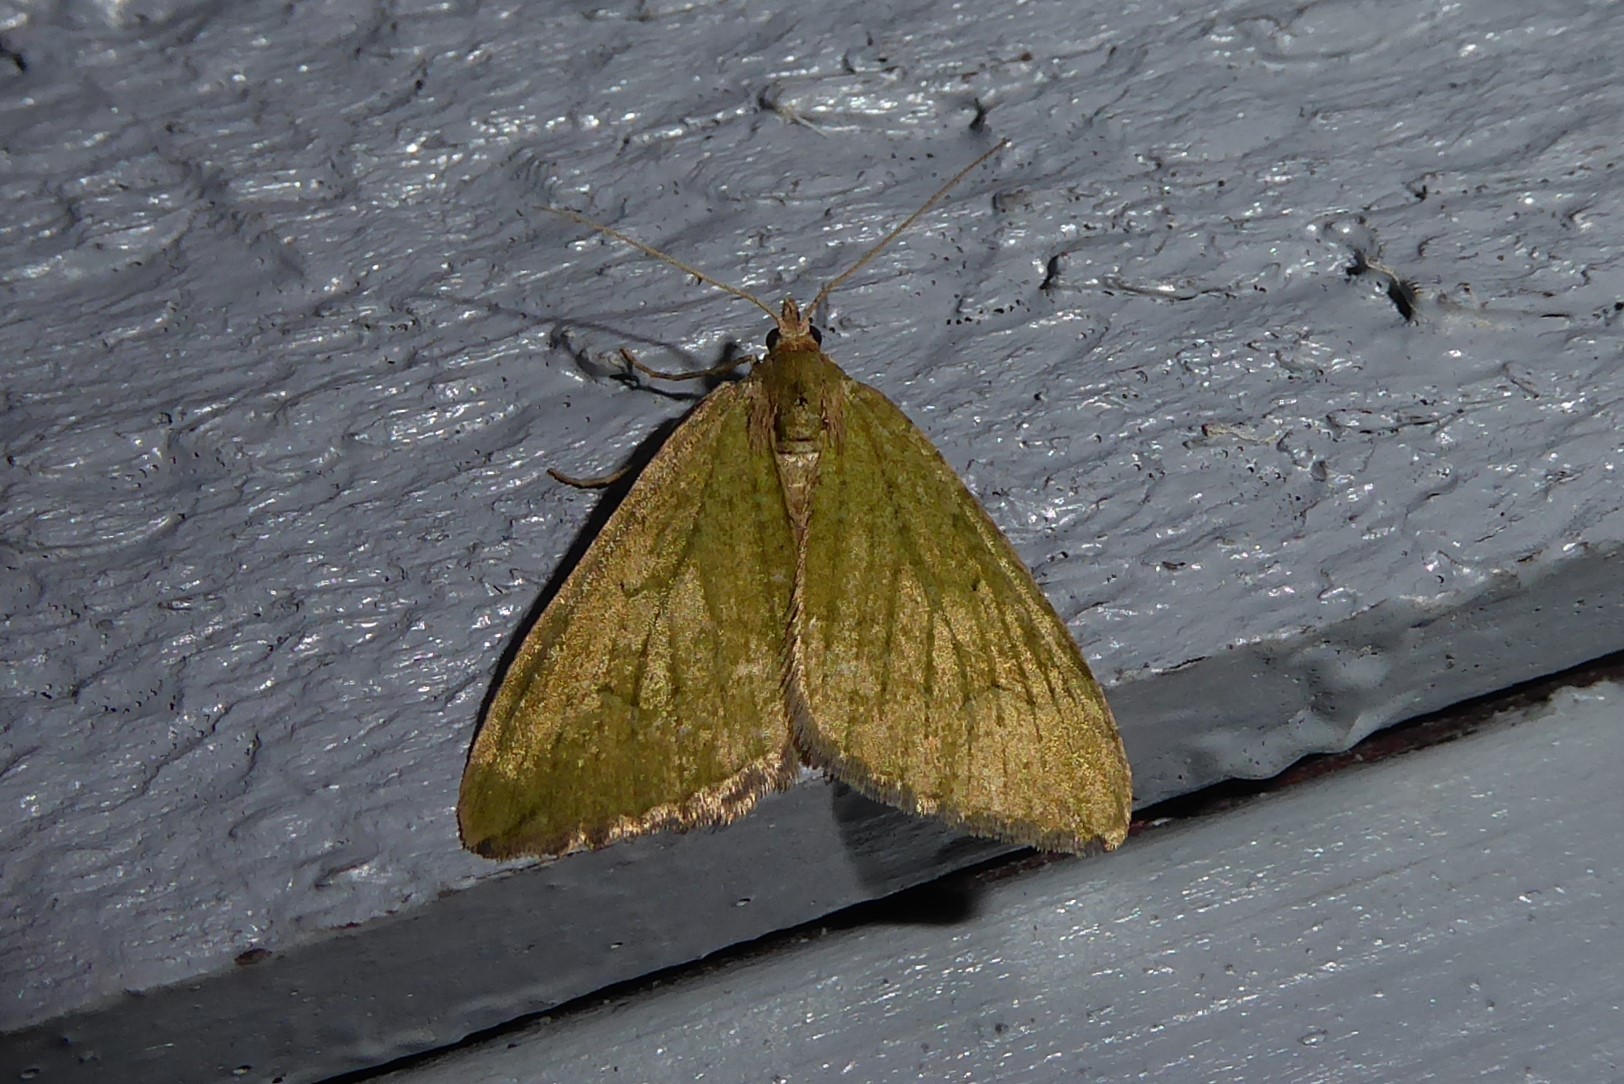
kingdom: Animalia
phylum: Arthropoda
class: Insecta
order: Lepidoptera
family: Geometridae
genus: Epyaxa
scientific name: Epyaxa rosearia
